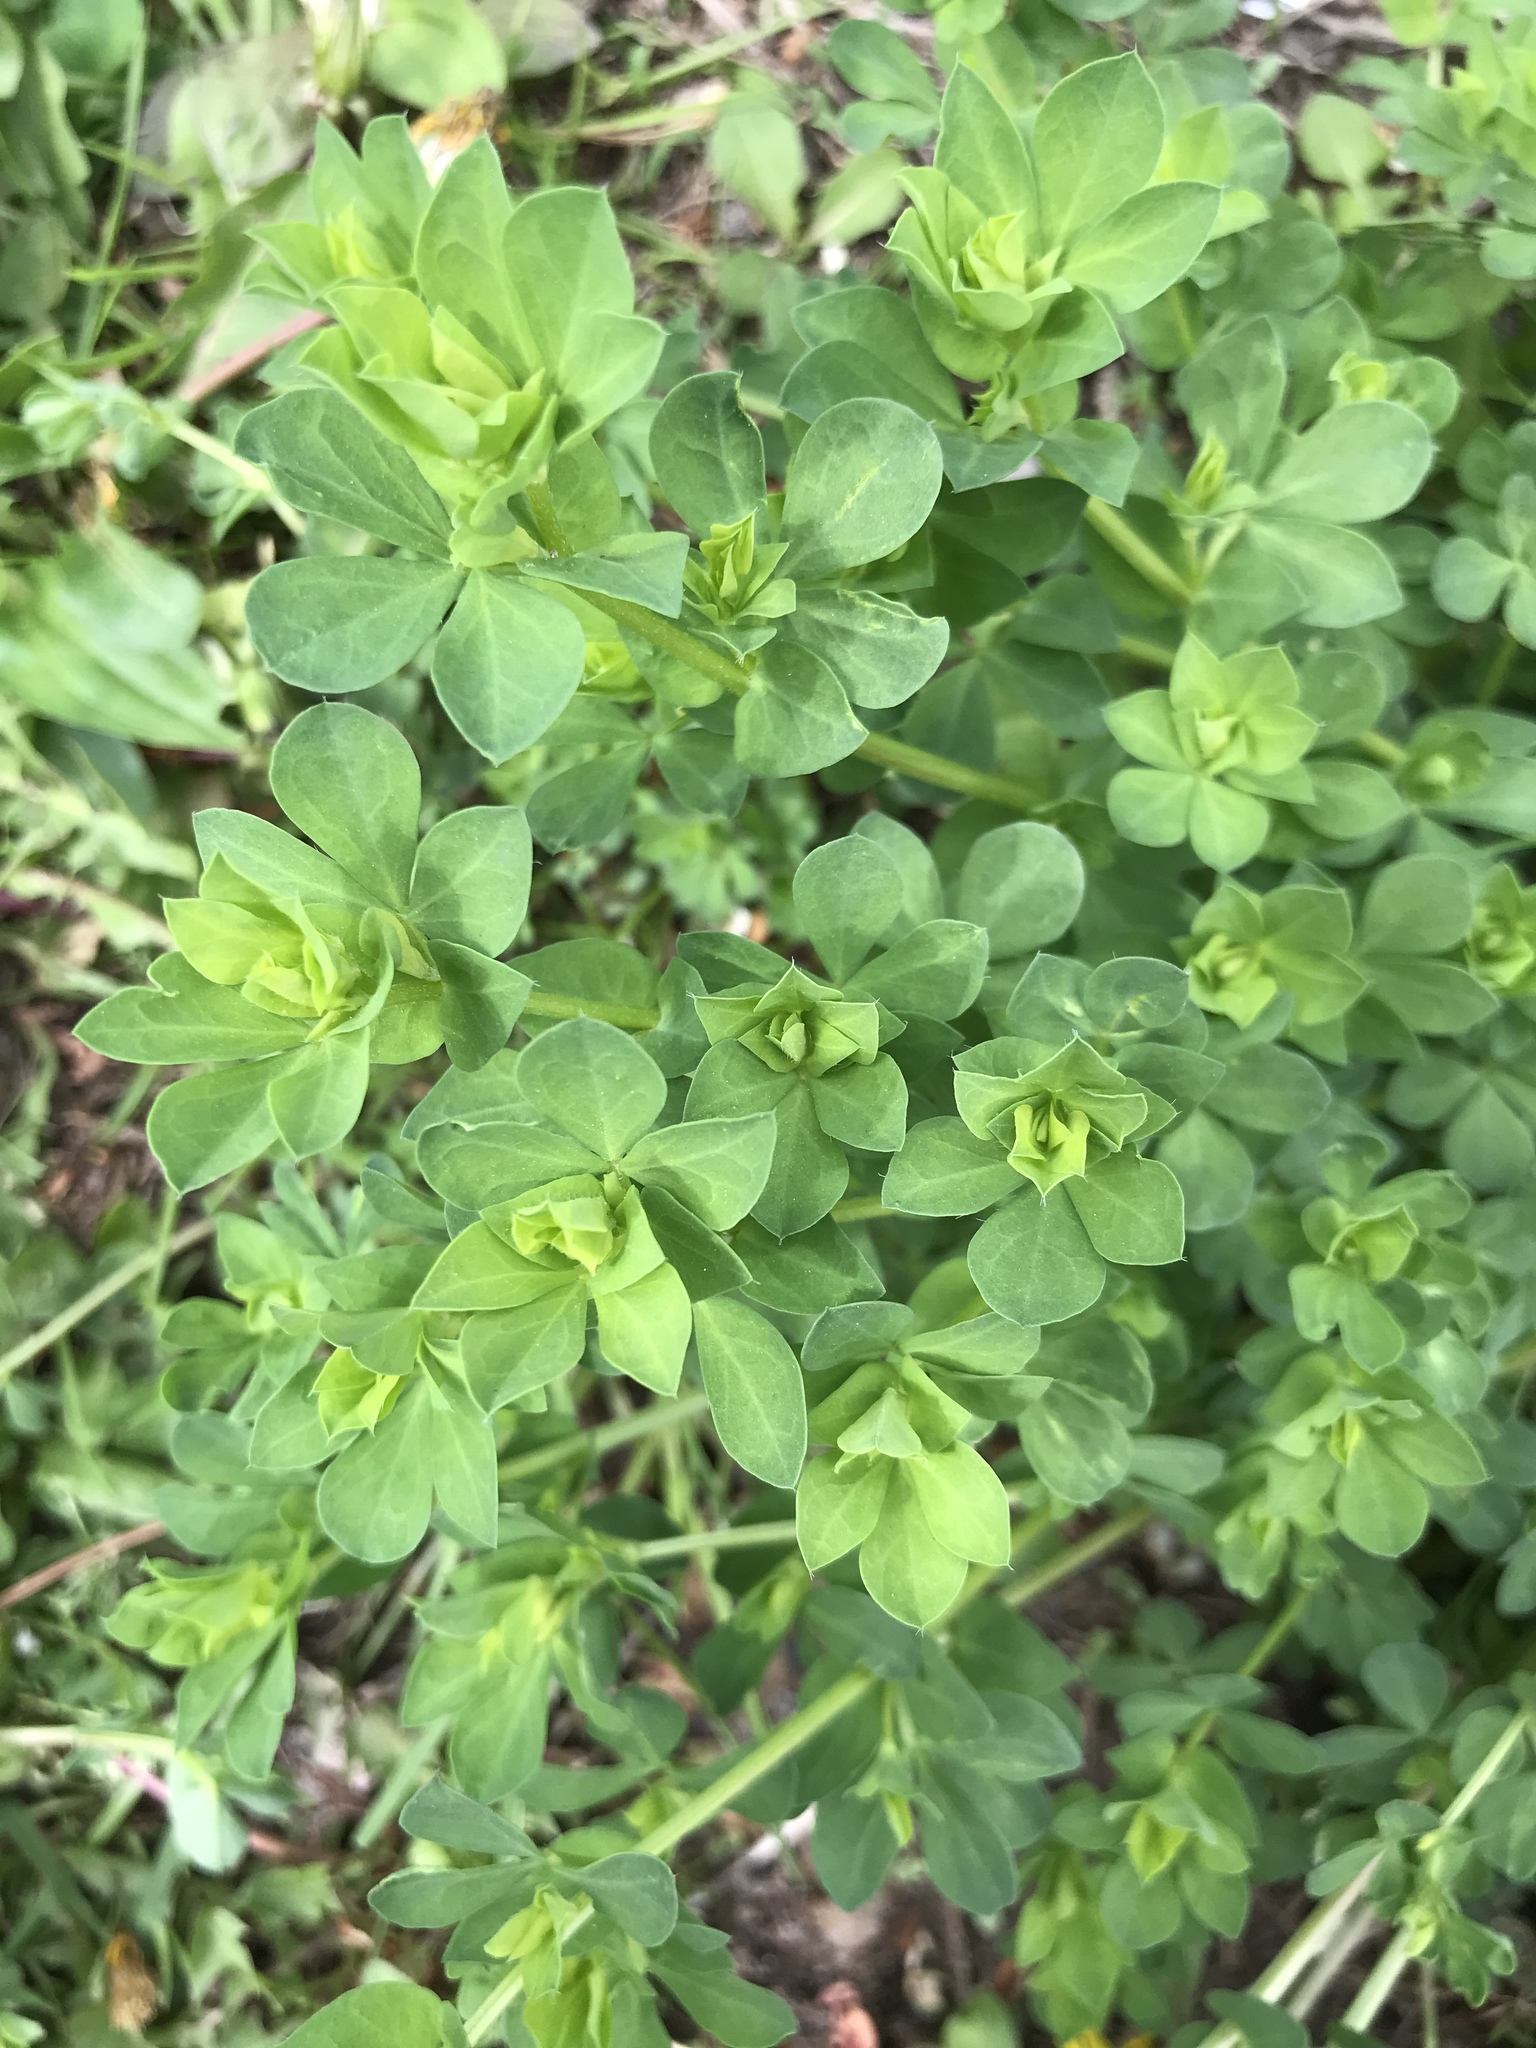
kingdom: Plantae
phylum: Tracheophyta
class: Magnoliopsida
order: Fabales
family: Fabaceae
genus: Lotus
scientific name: Lotus corniculatus
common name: Common bird's-foot-trefoil
